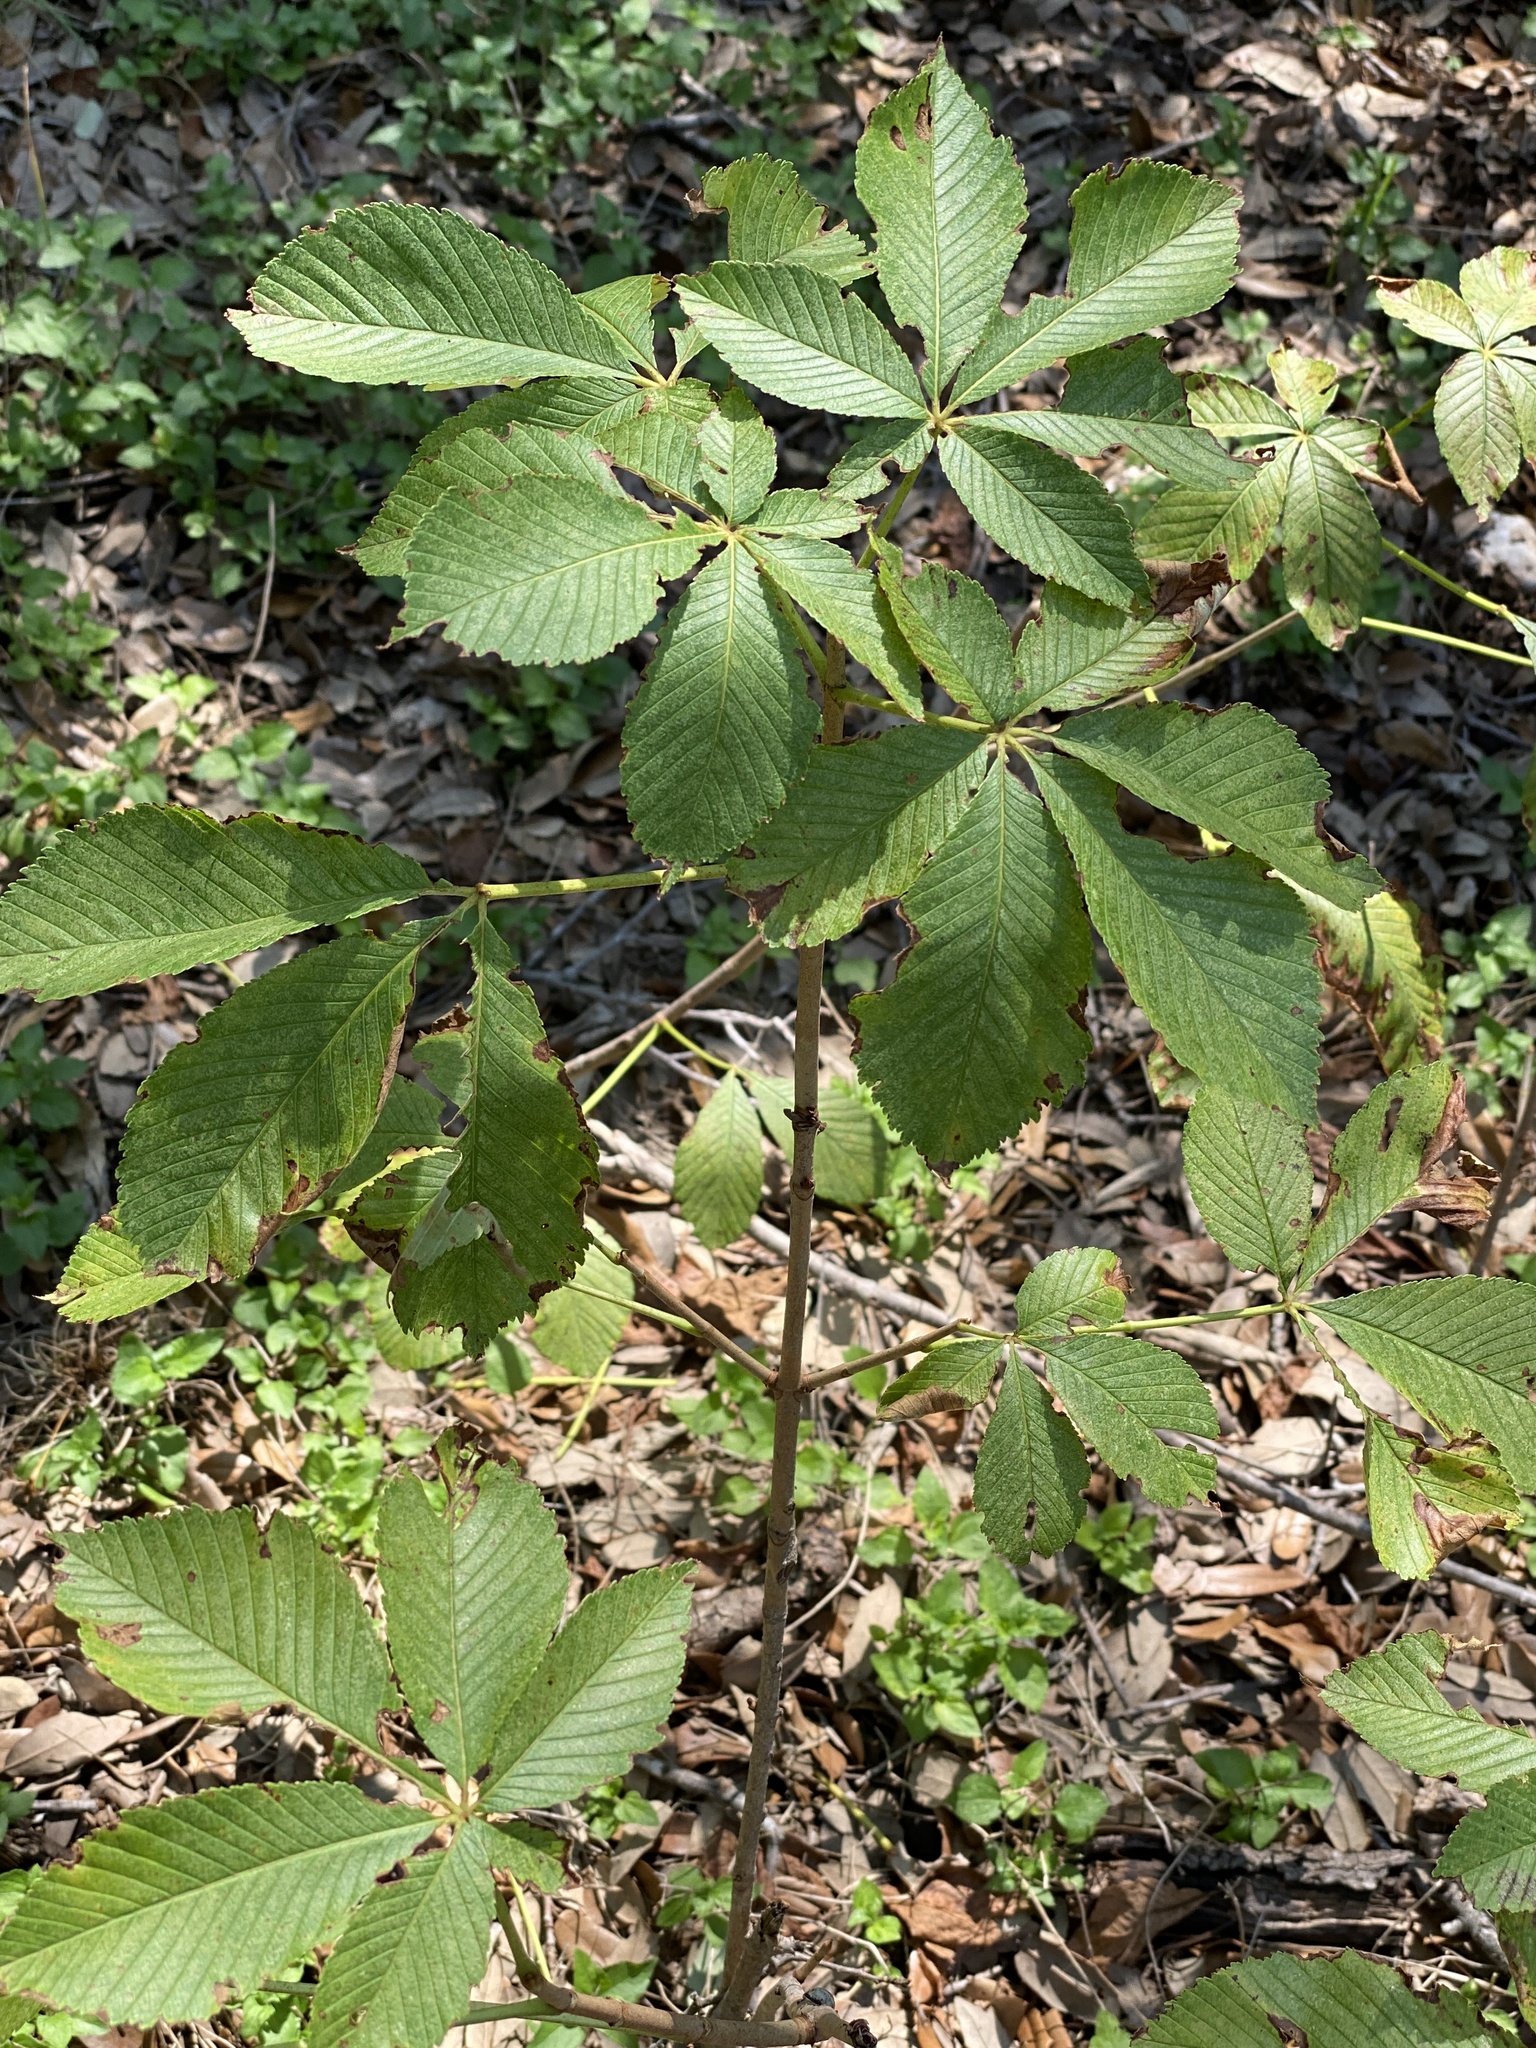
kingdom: Plantae
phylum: Tracheophyta
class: Magnoliopsida
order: Sapindales
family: Sapindaceae
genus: Aesculus
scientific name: Aesculus pavia
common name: Red buckeye
